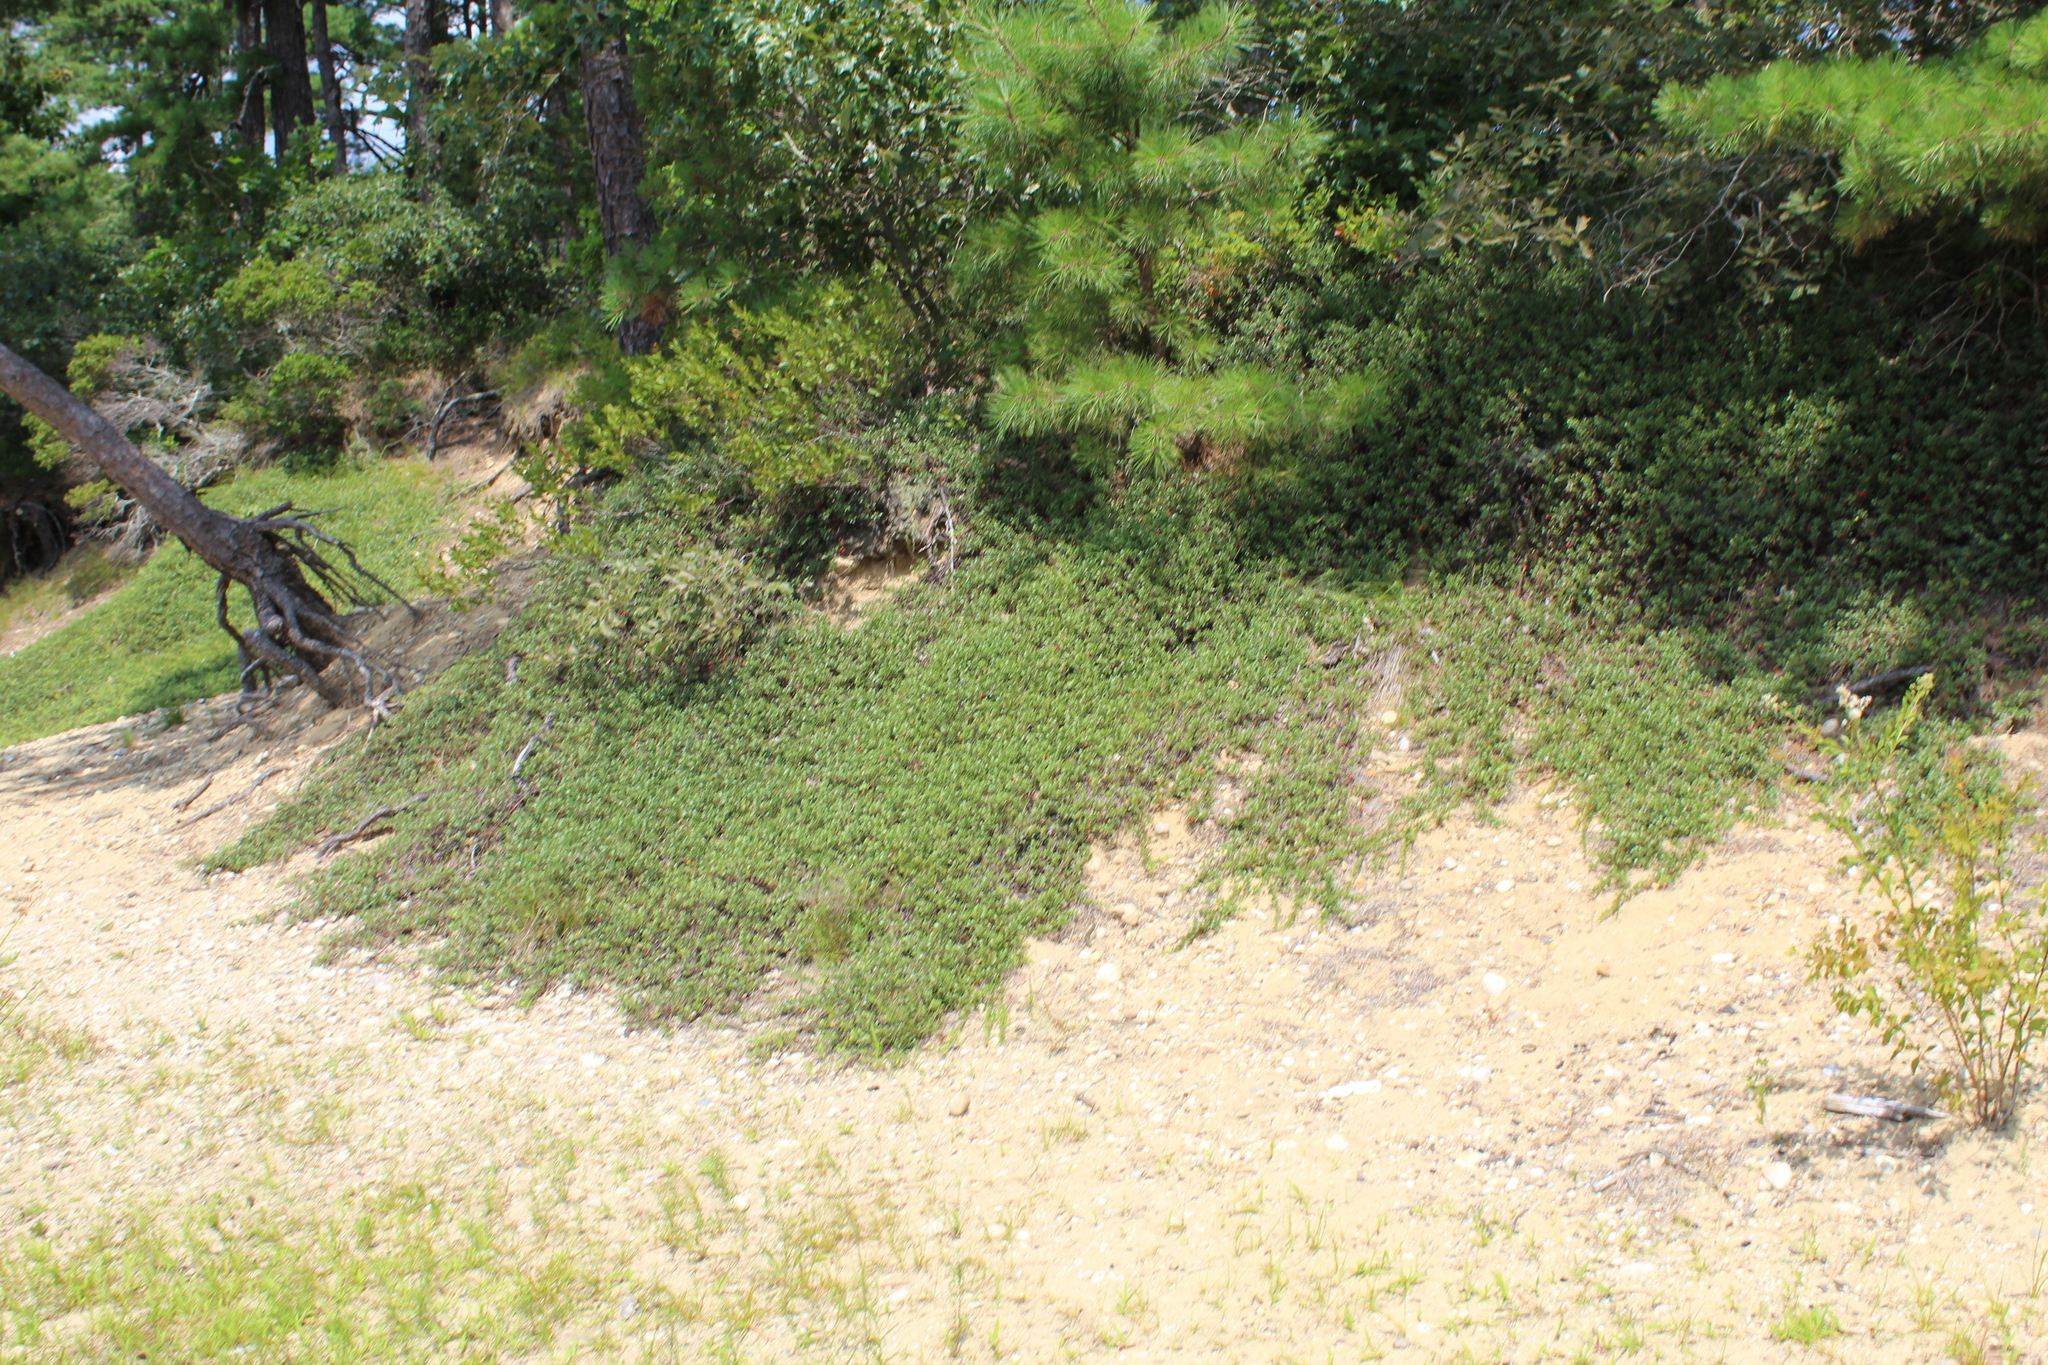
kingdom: Plantae
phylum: Tracheophyta
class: Magnoliopsida
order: Ericales
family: Ericaceae
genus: Arctostaphylos
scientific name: Arctostaphylos uva-ursi
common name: Bearberry
